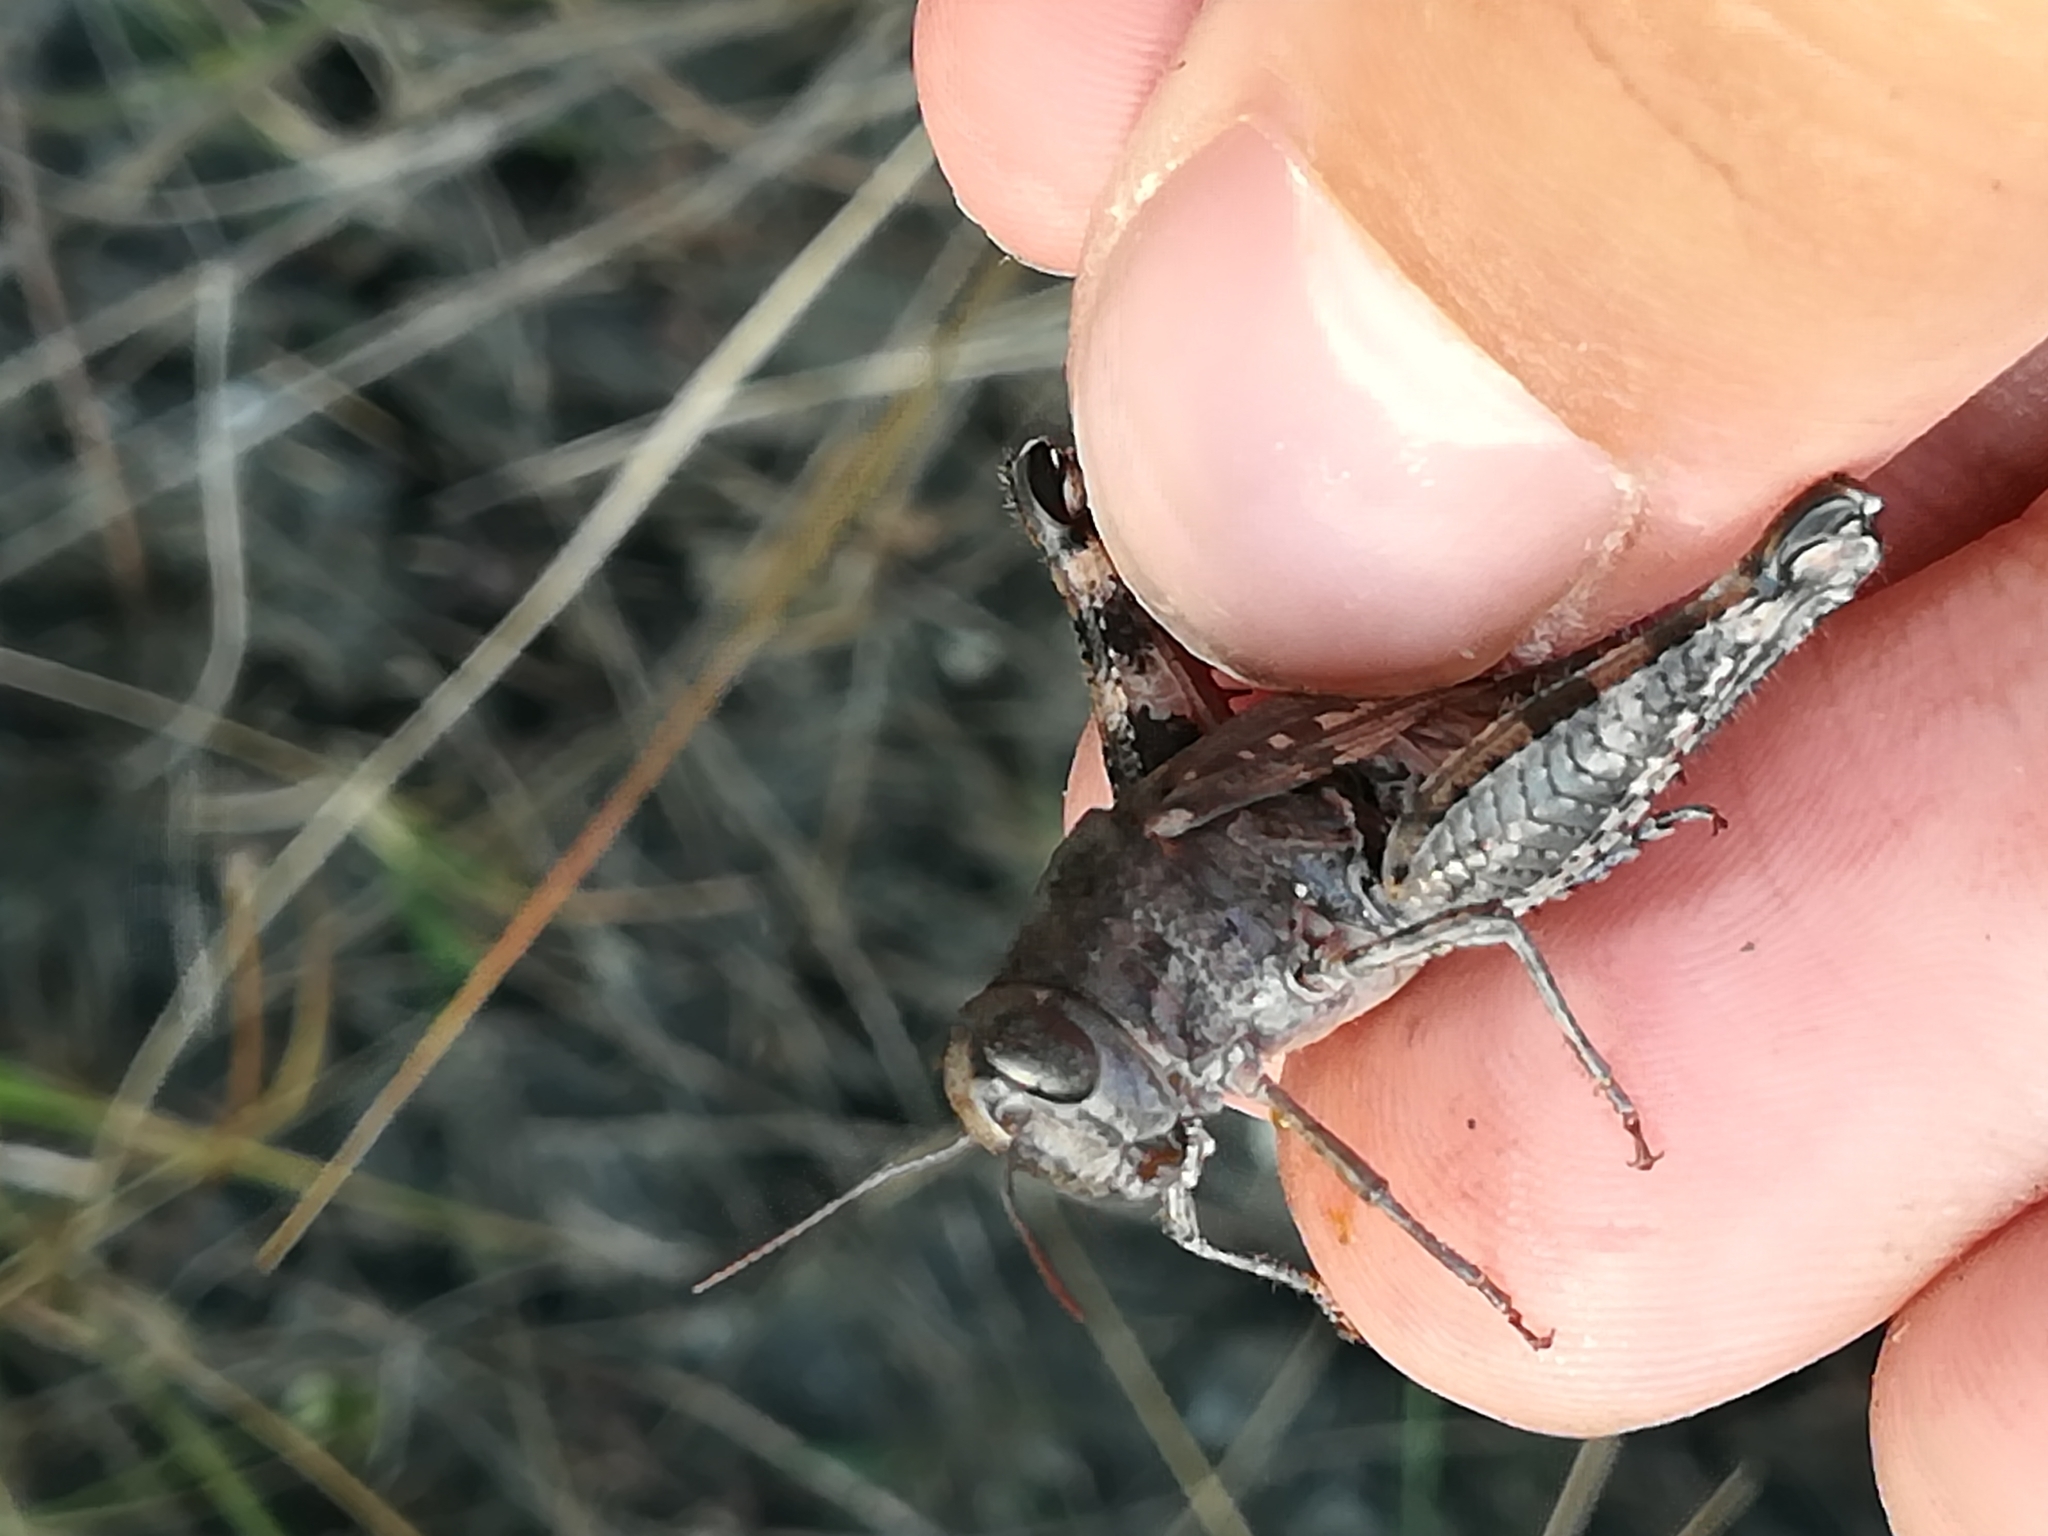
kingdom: Animalia
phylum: Arthropoda
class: Insecta
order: Orthoptera
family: Acrididae
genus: Calliptamus
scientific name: Calliptamus italicus
